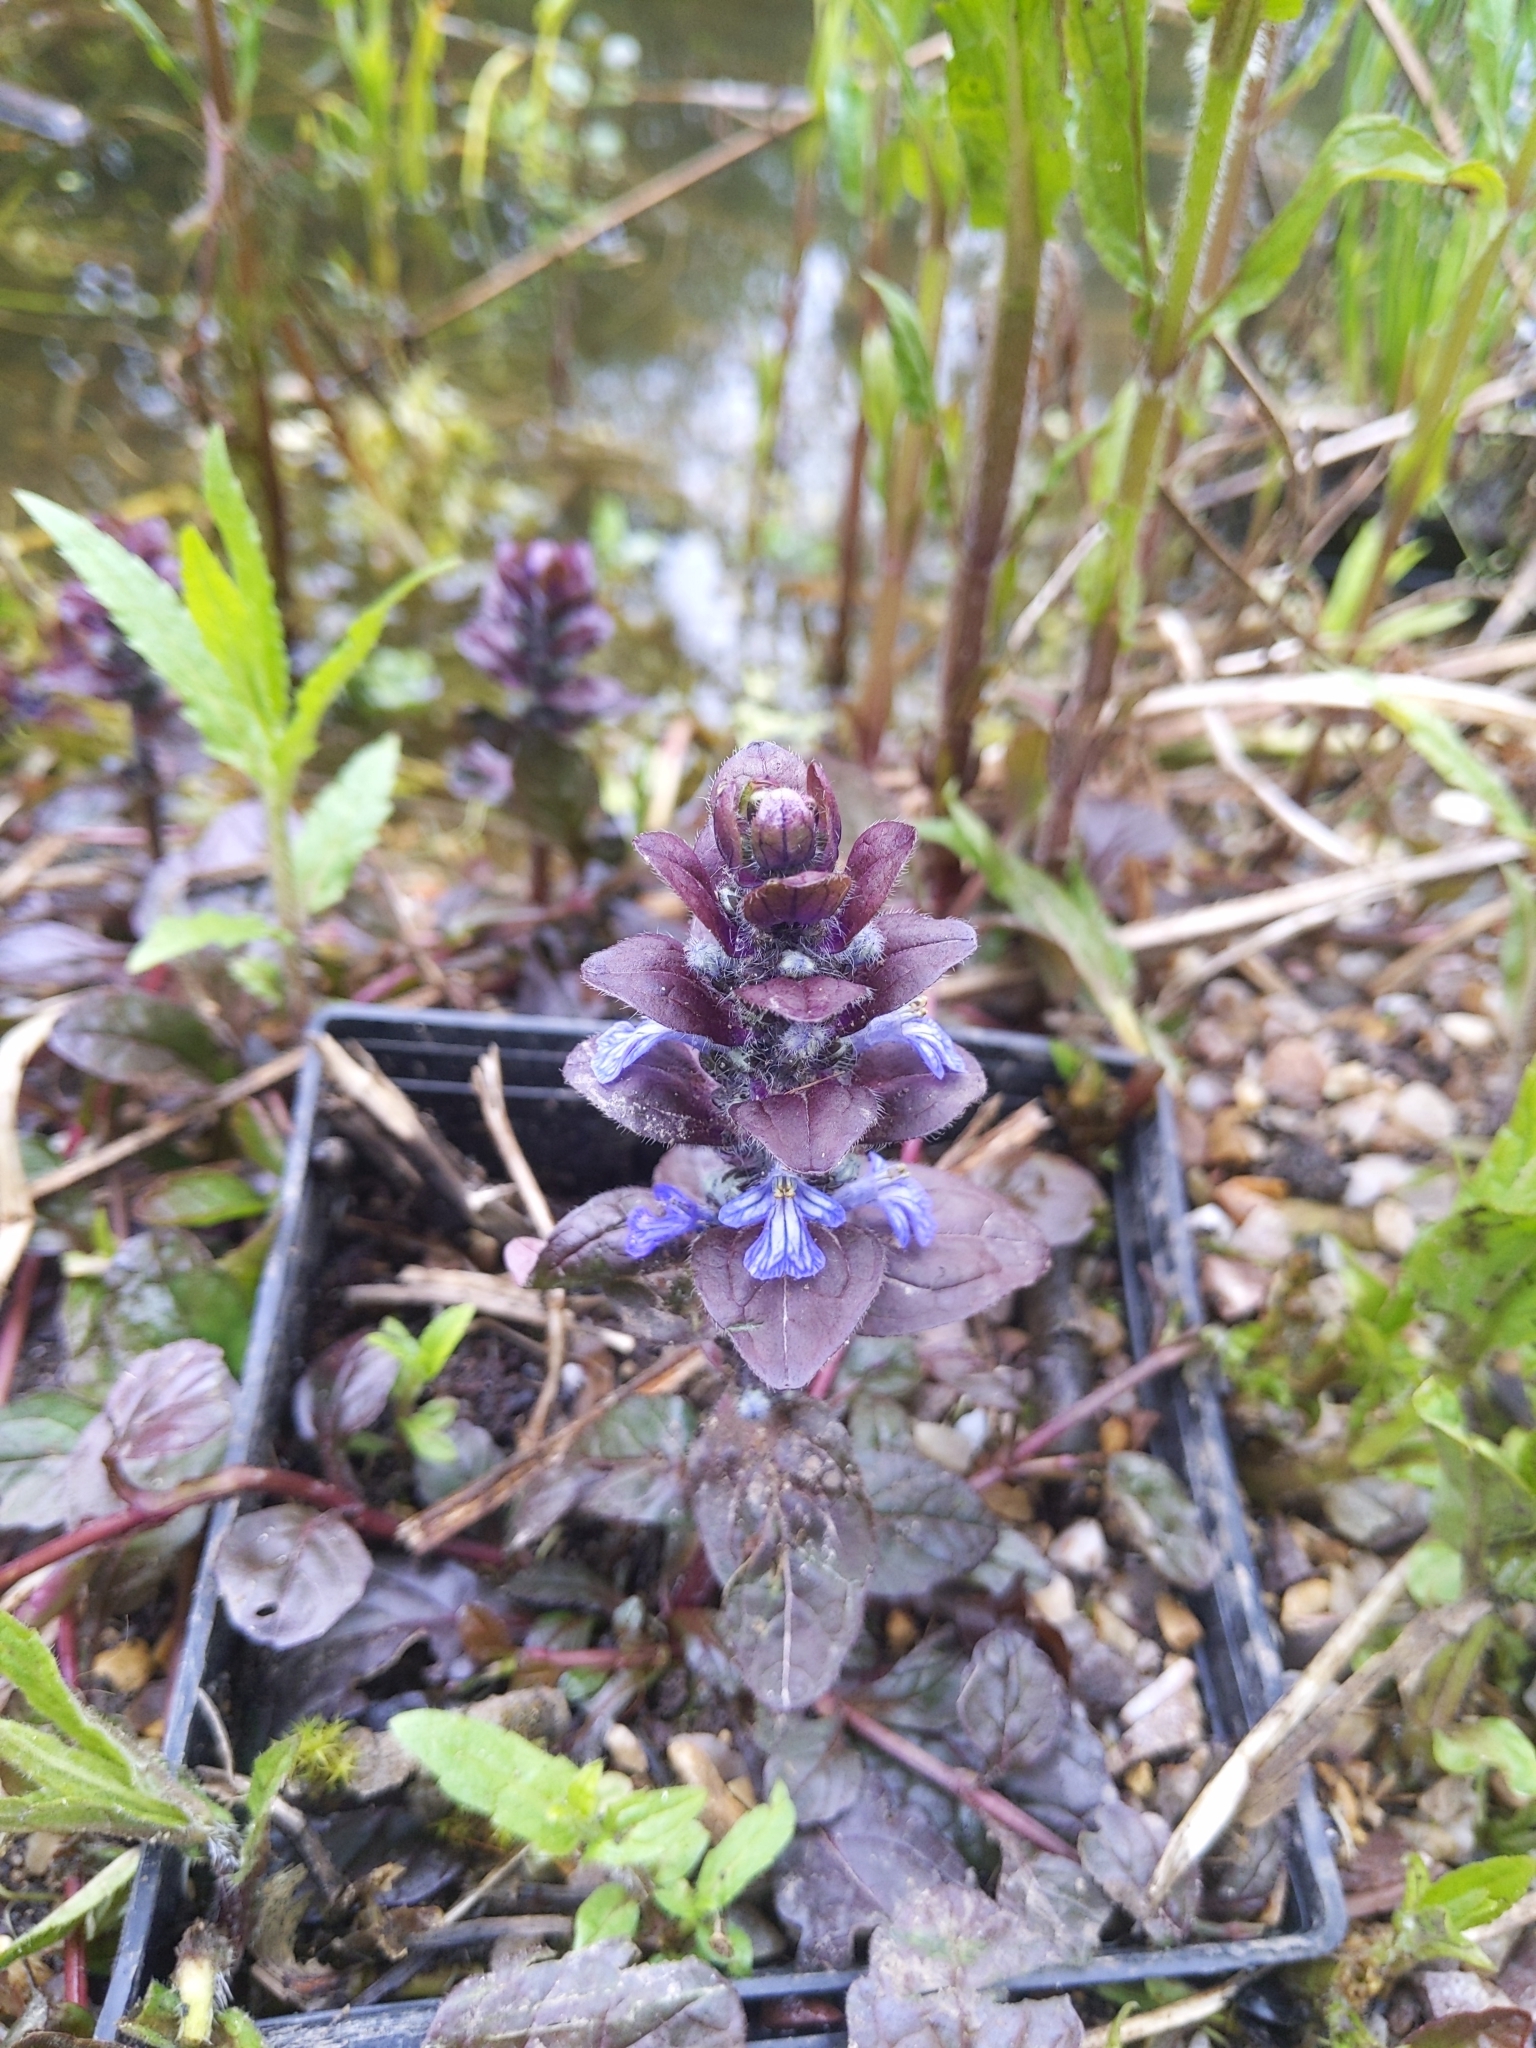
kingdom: Plantae
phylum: Tracheophyta
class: Magnoliopsida
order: Lamiales
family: Lamiaceae
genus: Ajuga
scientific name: Ajuga reptans
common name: Bugle
